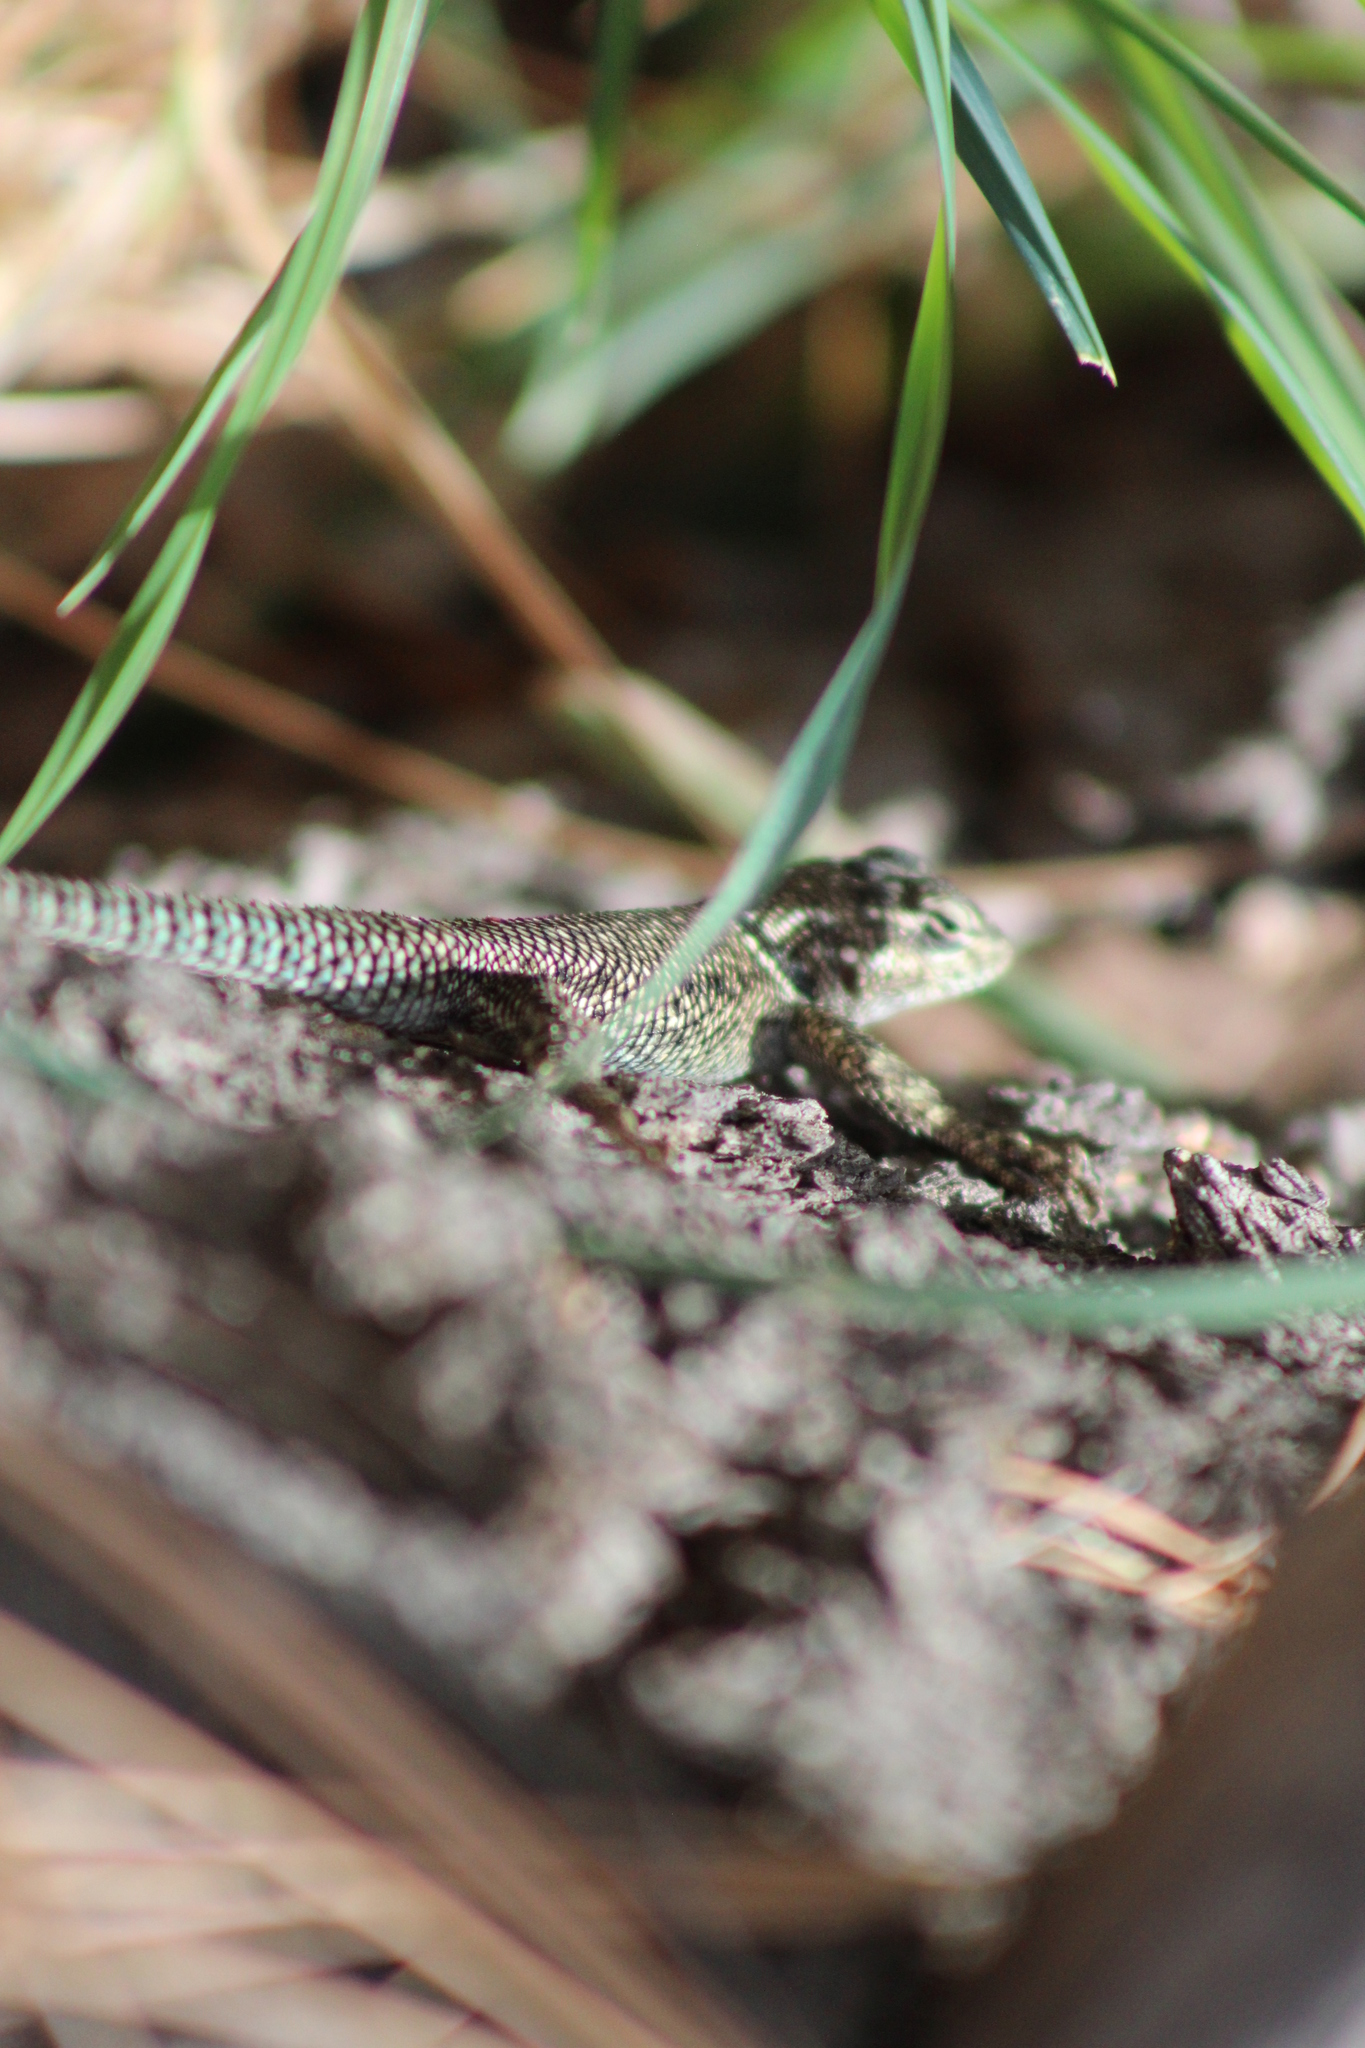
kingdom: Animalia
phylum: Chordata
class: Squamata
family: Phrynosomatidae
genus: Sceloporus
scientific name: Sceloporus jarrovii
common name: Yarrow's spiny lizard
